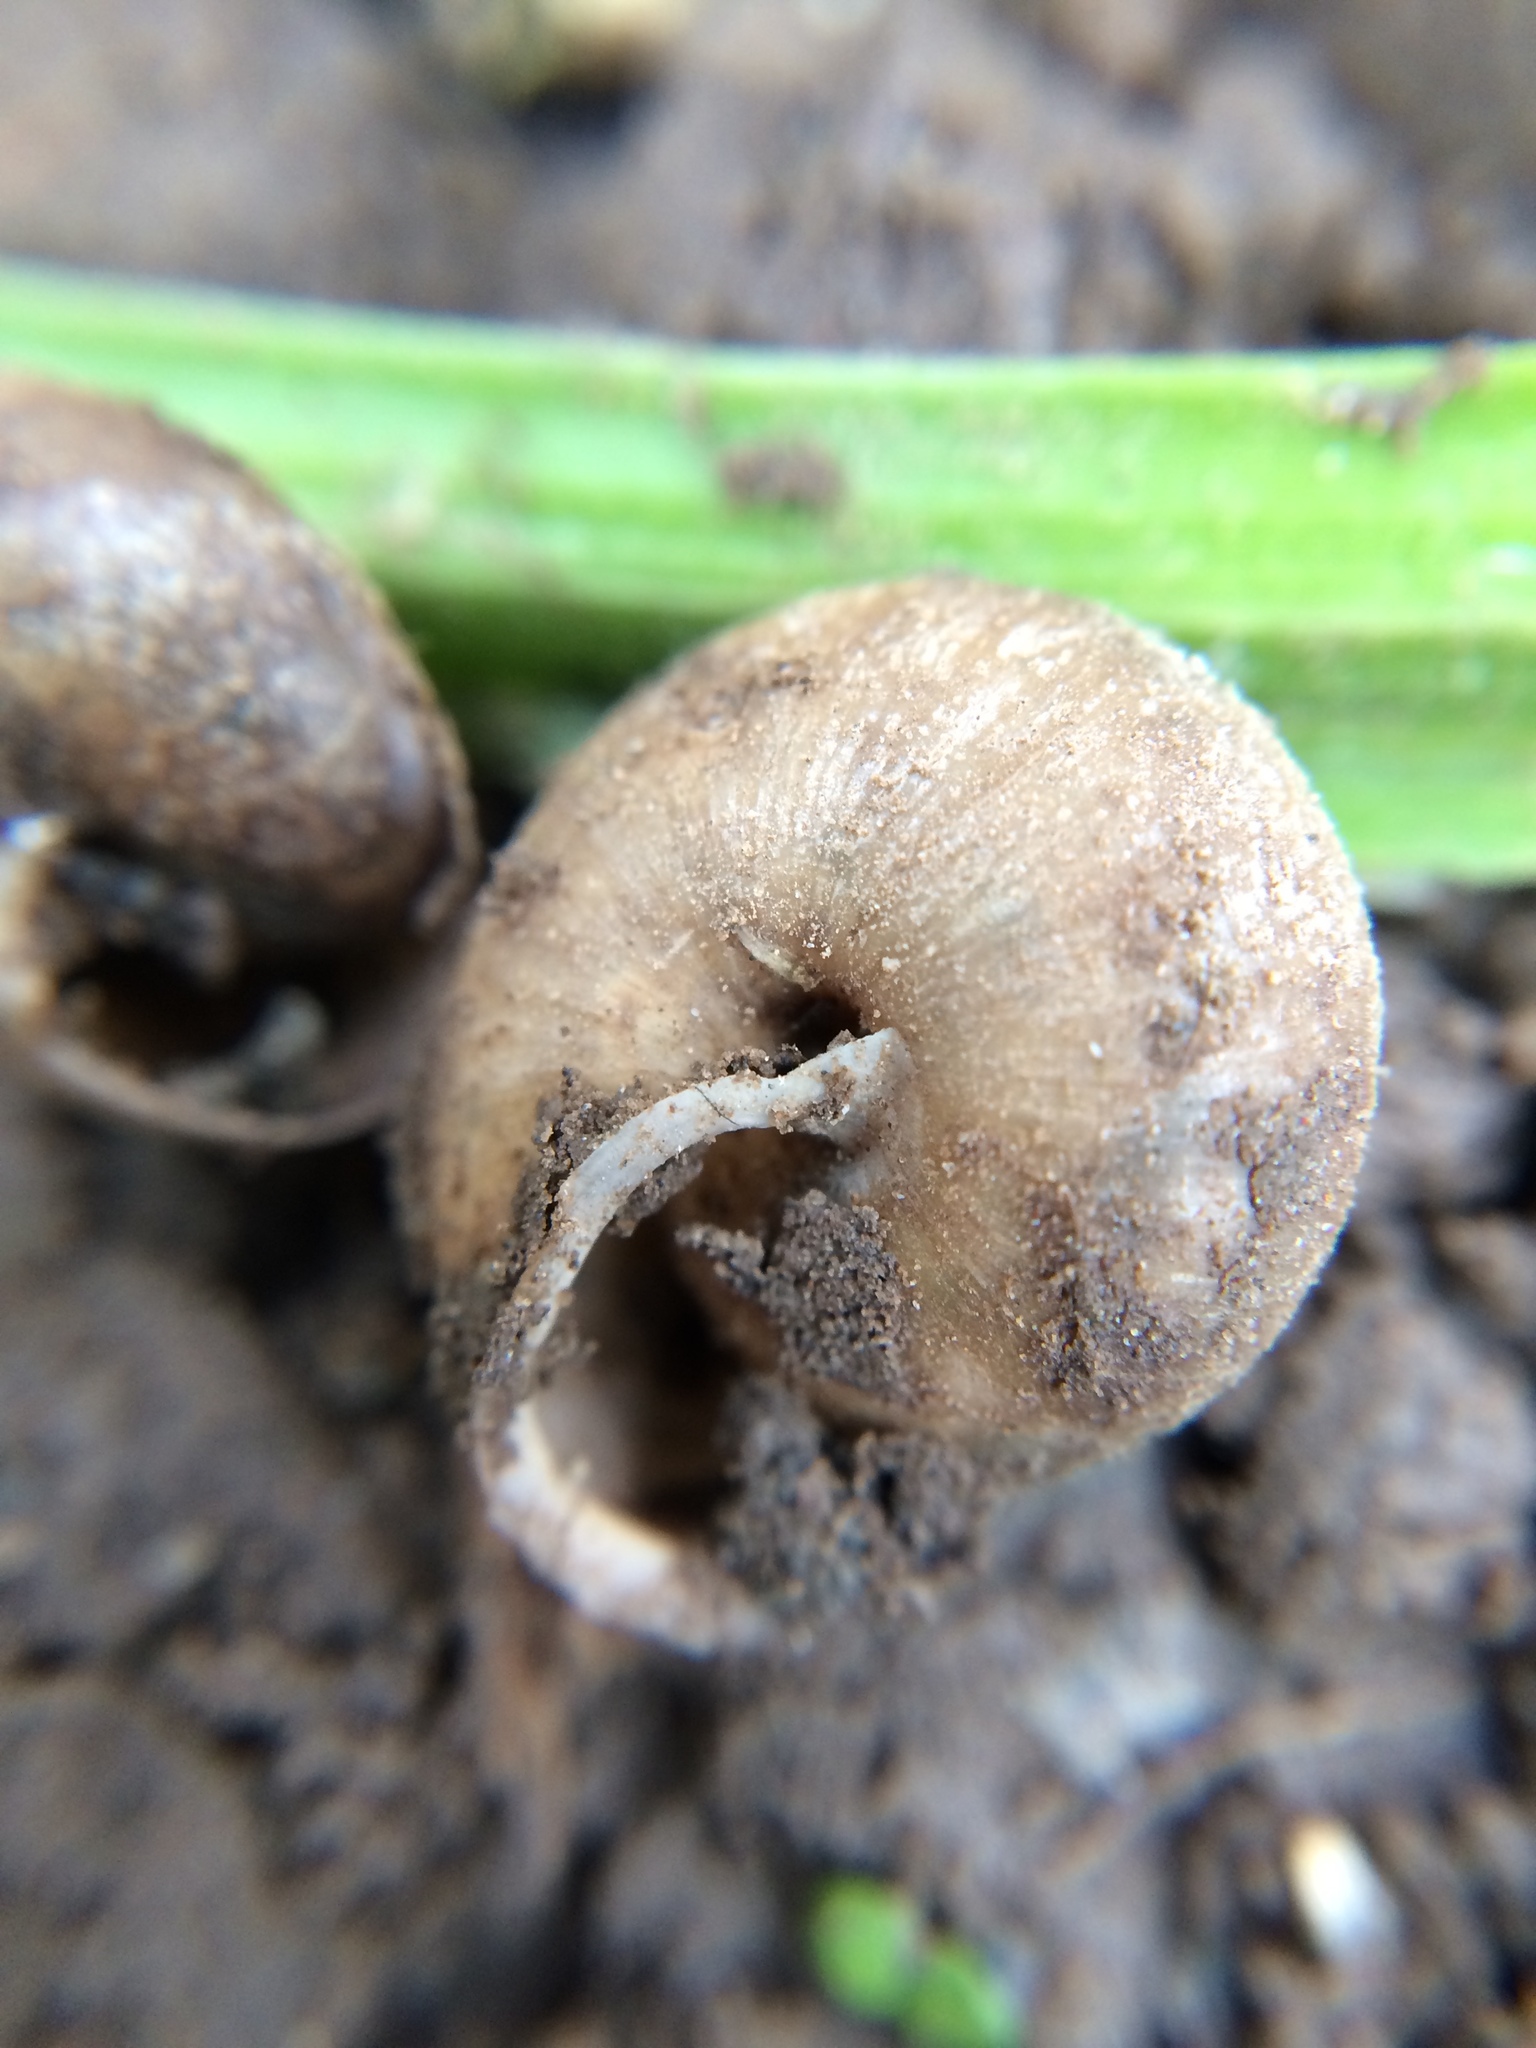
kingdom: Animalia
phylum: Mollusca
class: Gastropoda
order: Stylommatophora
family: Polygyridae
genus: Vespericola
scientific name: Vespericola columbianus
